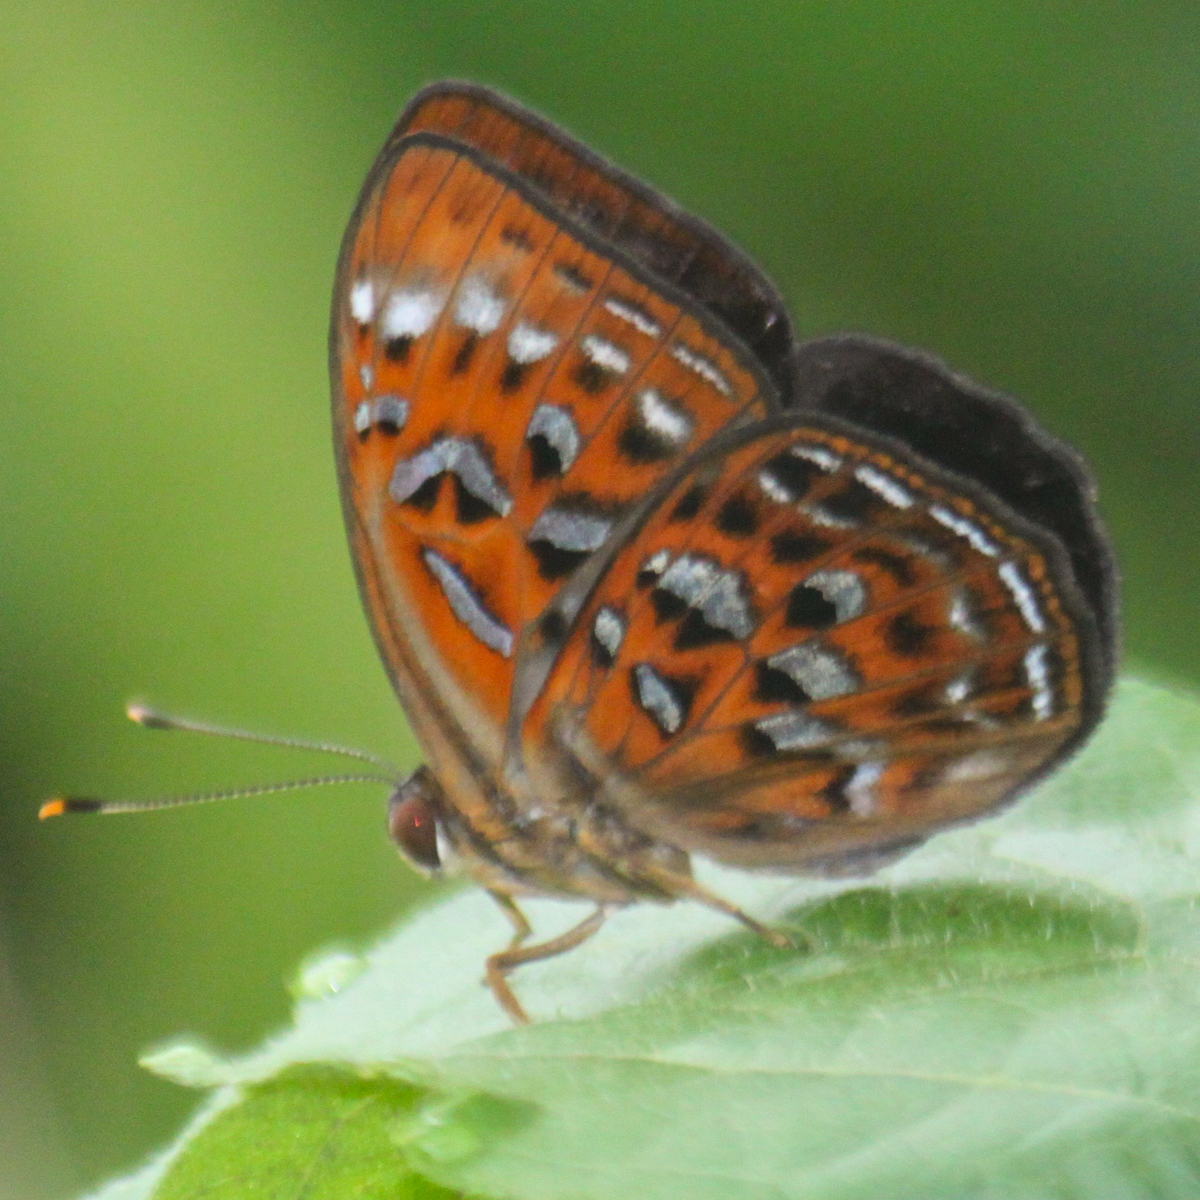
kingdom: Animalia
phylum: Arthropoda
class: Insecta
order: Lepidoptera
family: Erebidae
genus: Dysschema
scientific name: Dysschema
